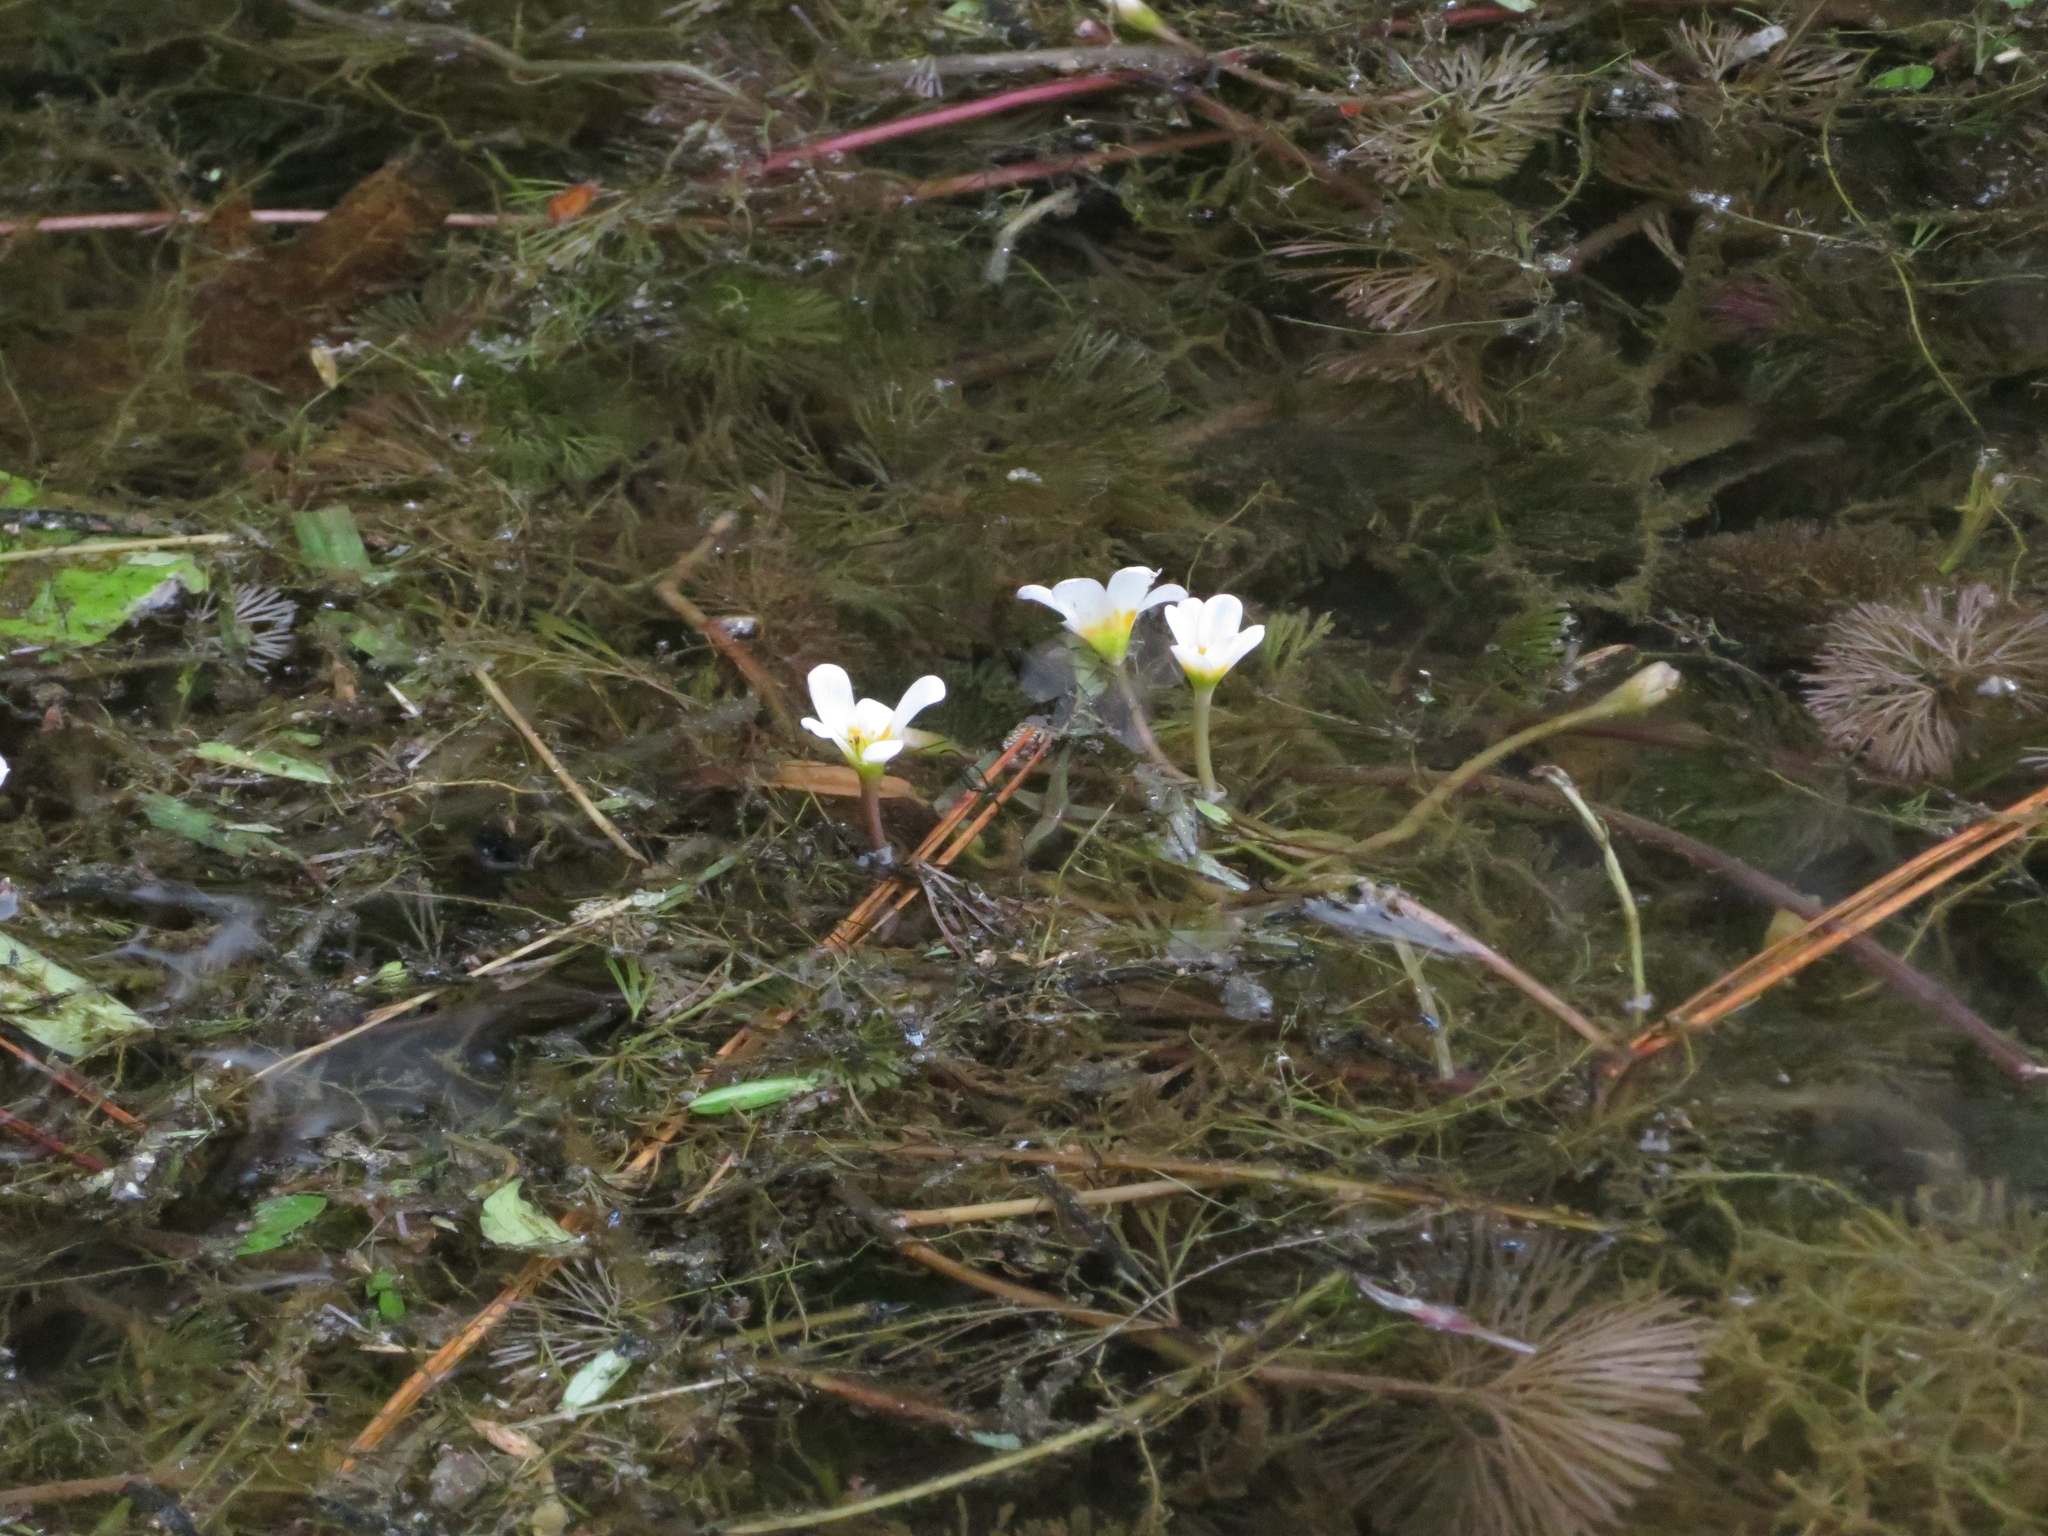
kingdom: Plantae
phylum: Tracheophyta
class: Magnoliopsida
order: Nymphaeales
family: Cabombaceae
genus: Cabomba
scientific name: Cabomba caroliniana
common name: Fanwort
